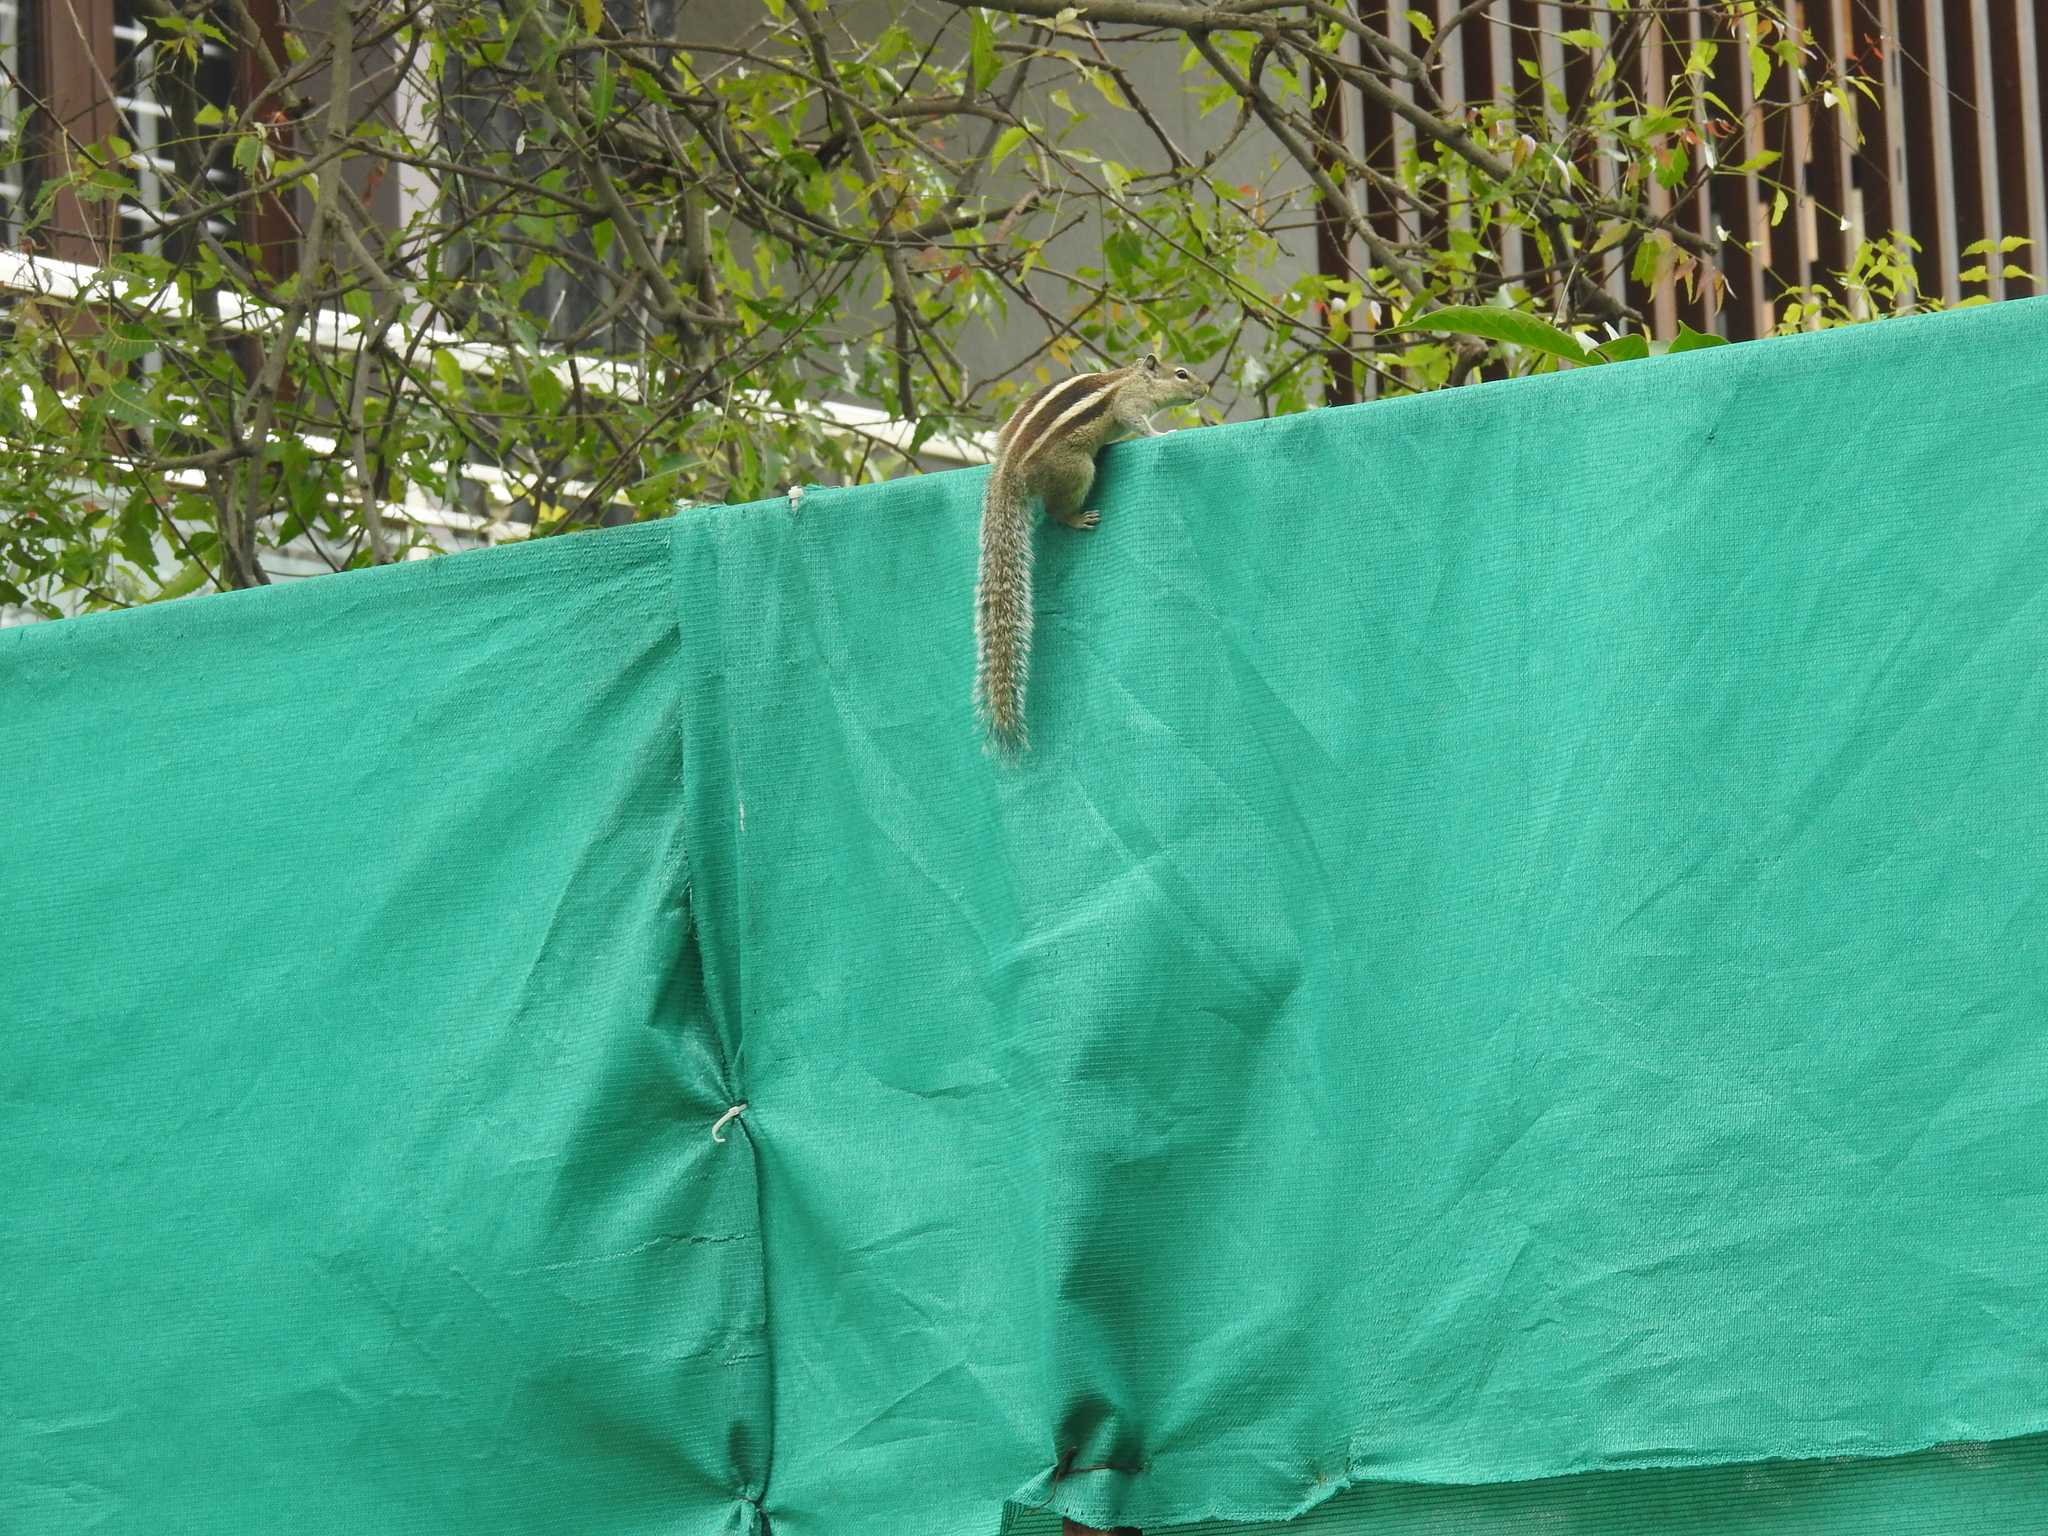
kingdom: Animalia
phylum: Chordata
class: Mammalia
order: Rodentia
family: Sciuridae
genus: Funambulus
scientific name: Funambulus palmarum
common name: Indian palm squirrel
